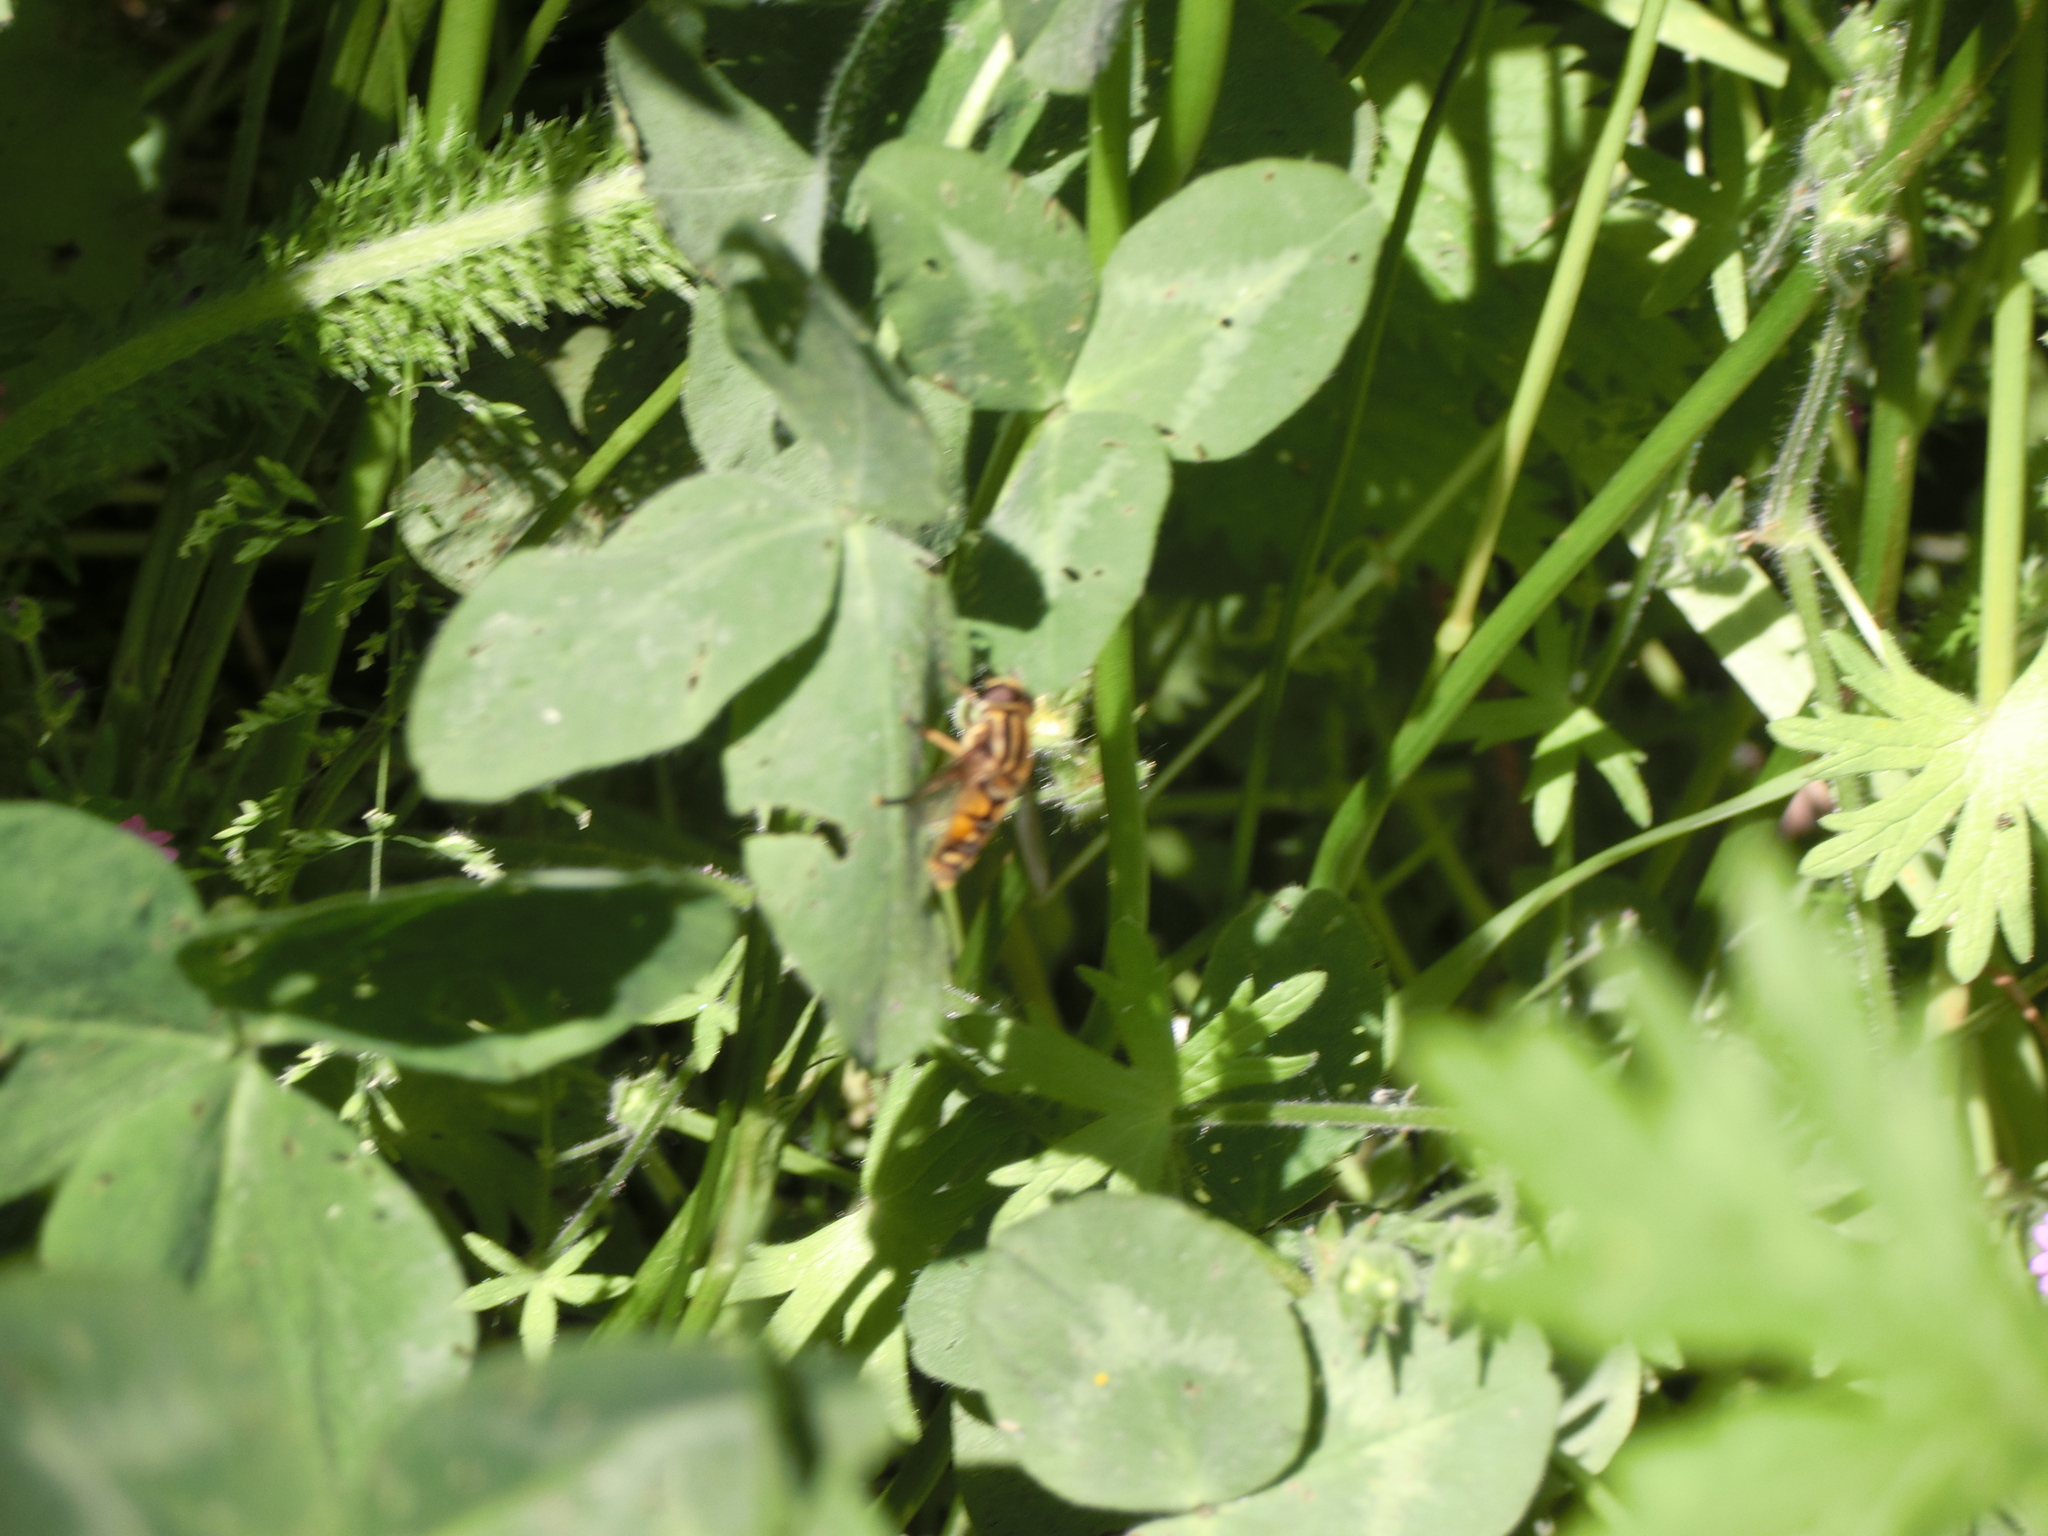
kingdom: Animalia
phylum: Arthropoda
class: Insecta
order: Diptera
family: Syrphidae
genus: Helophilus
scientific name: Helophilus pendulus
